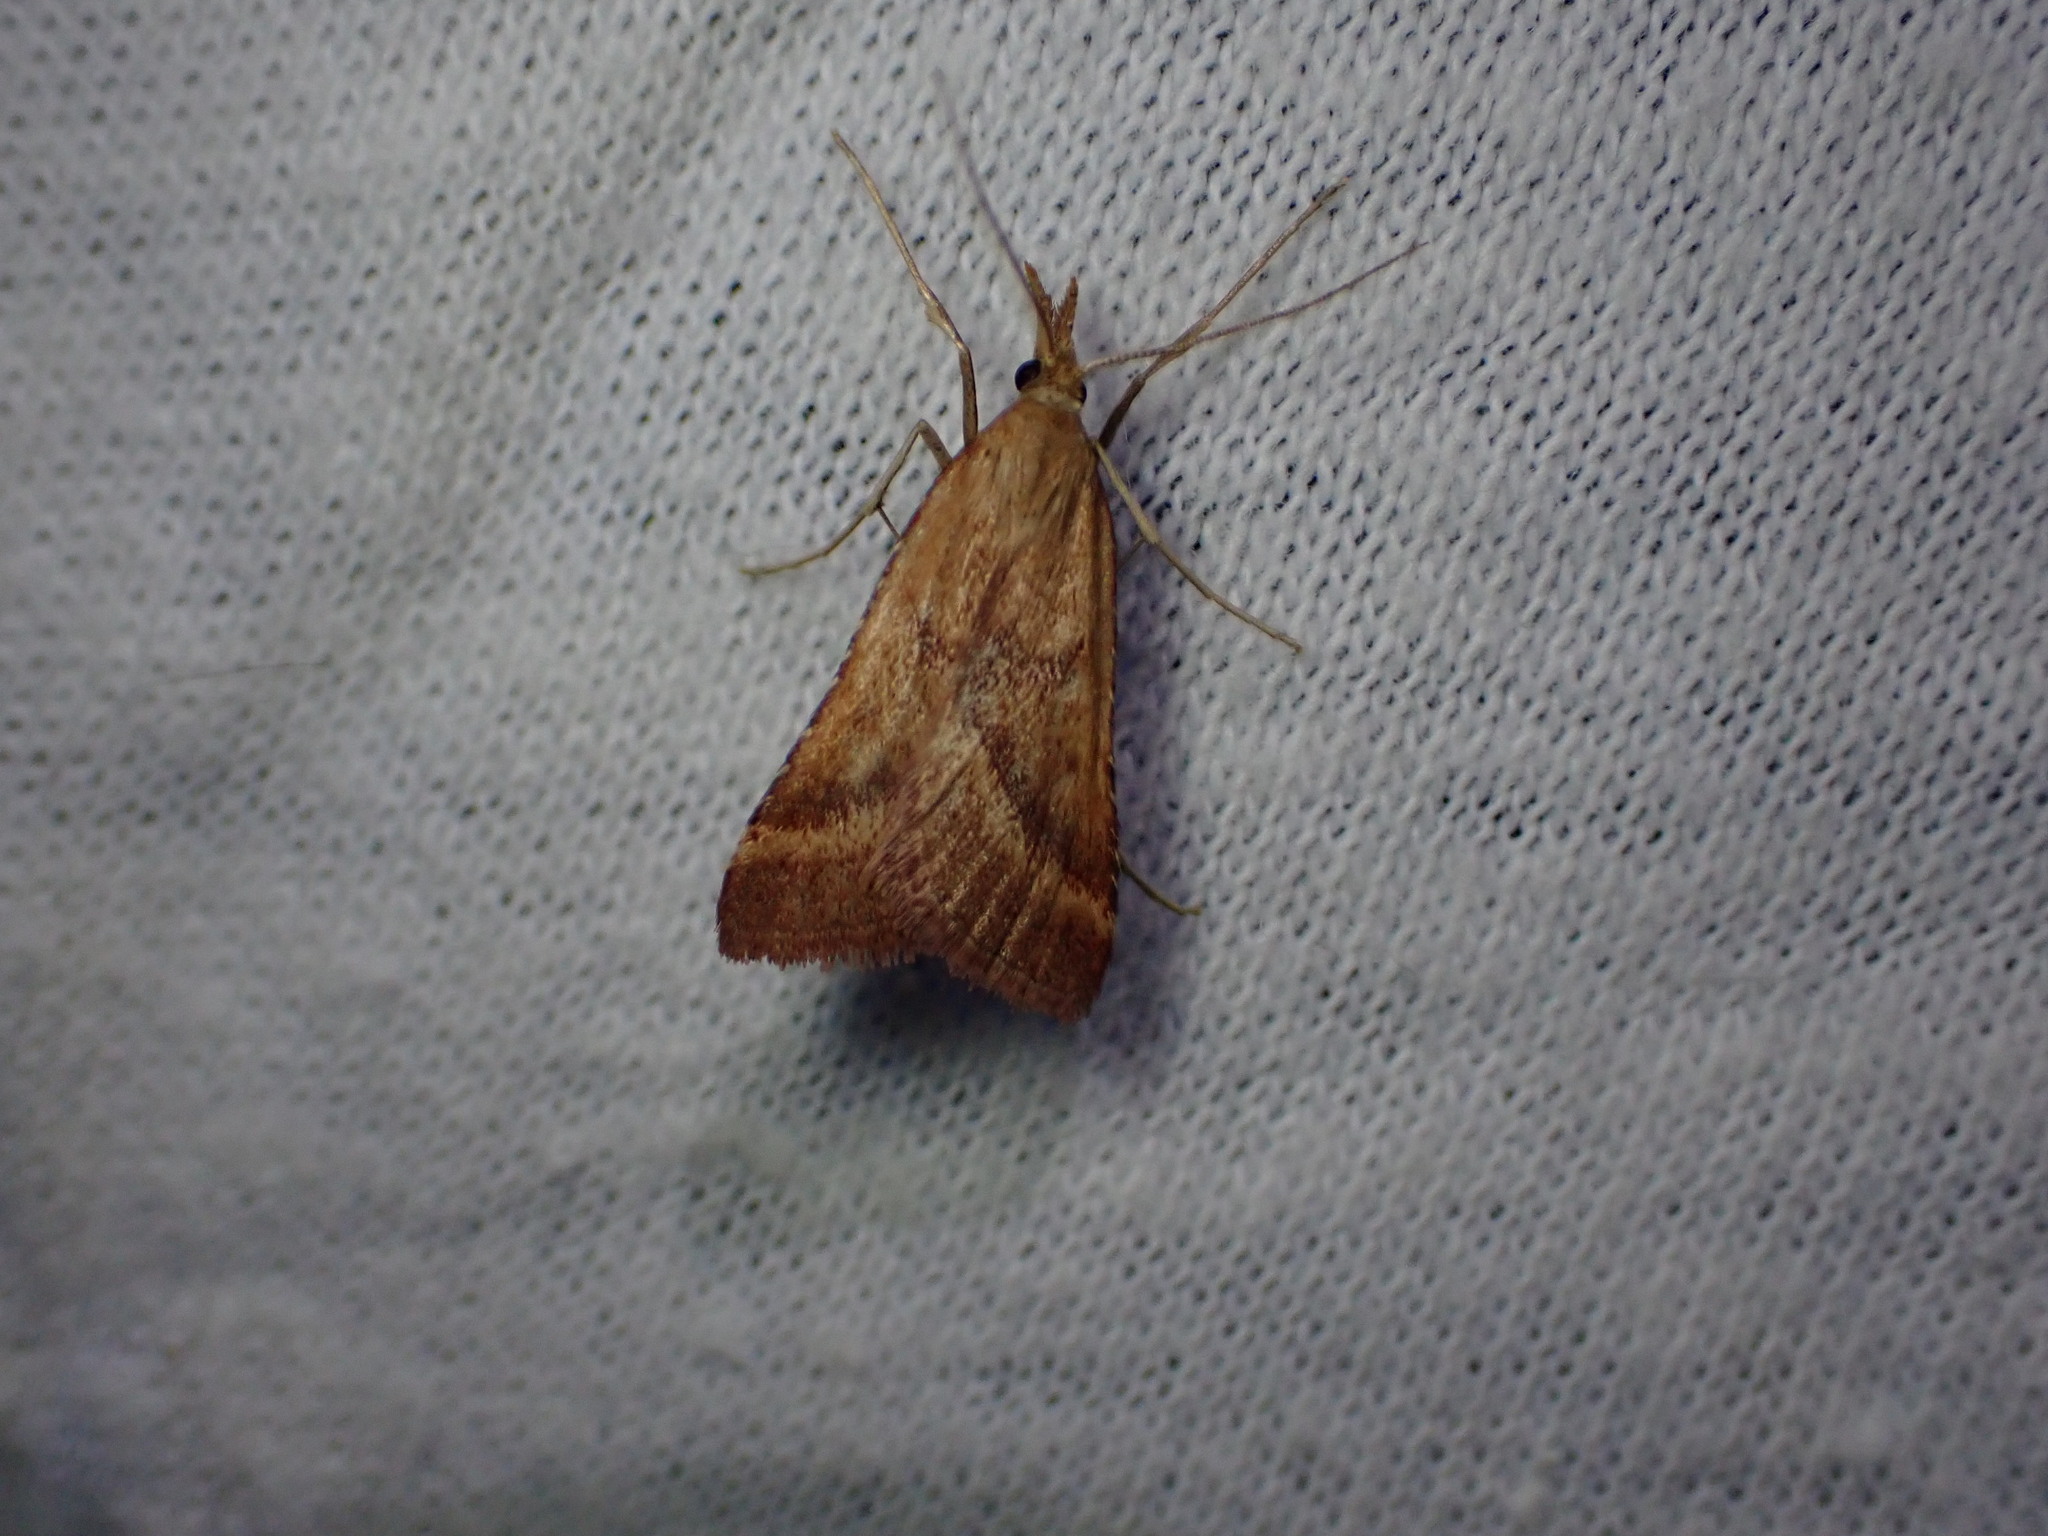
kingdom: Animalia
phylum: Arthropoda
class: Insecta
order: Lepidoptera
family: Pyralidae
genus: Synaphe
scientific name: Synaphe punctalis
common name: Long-legged tabby
